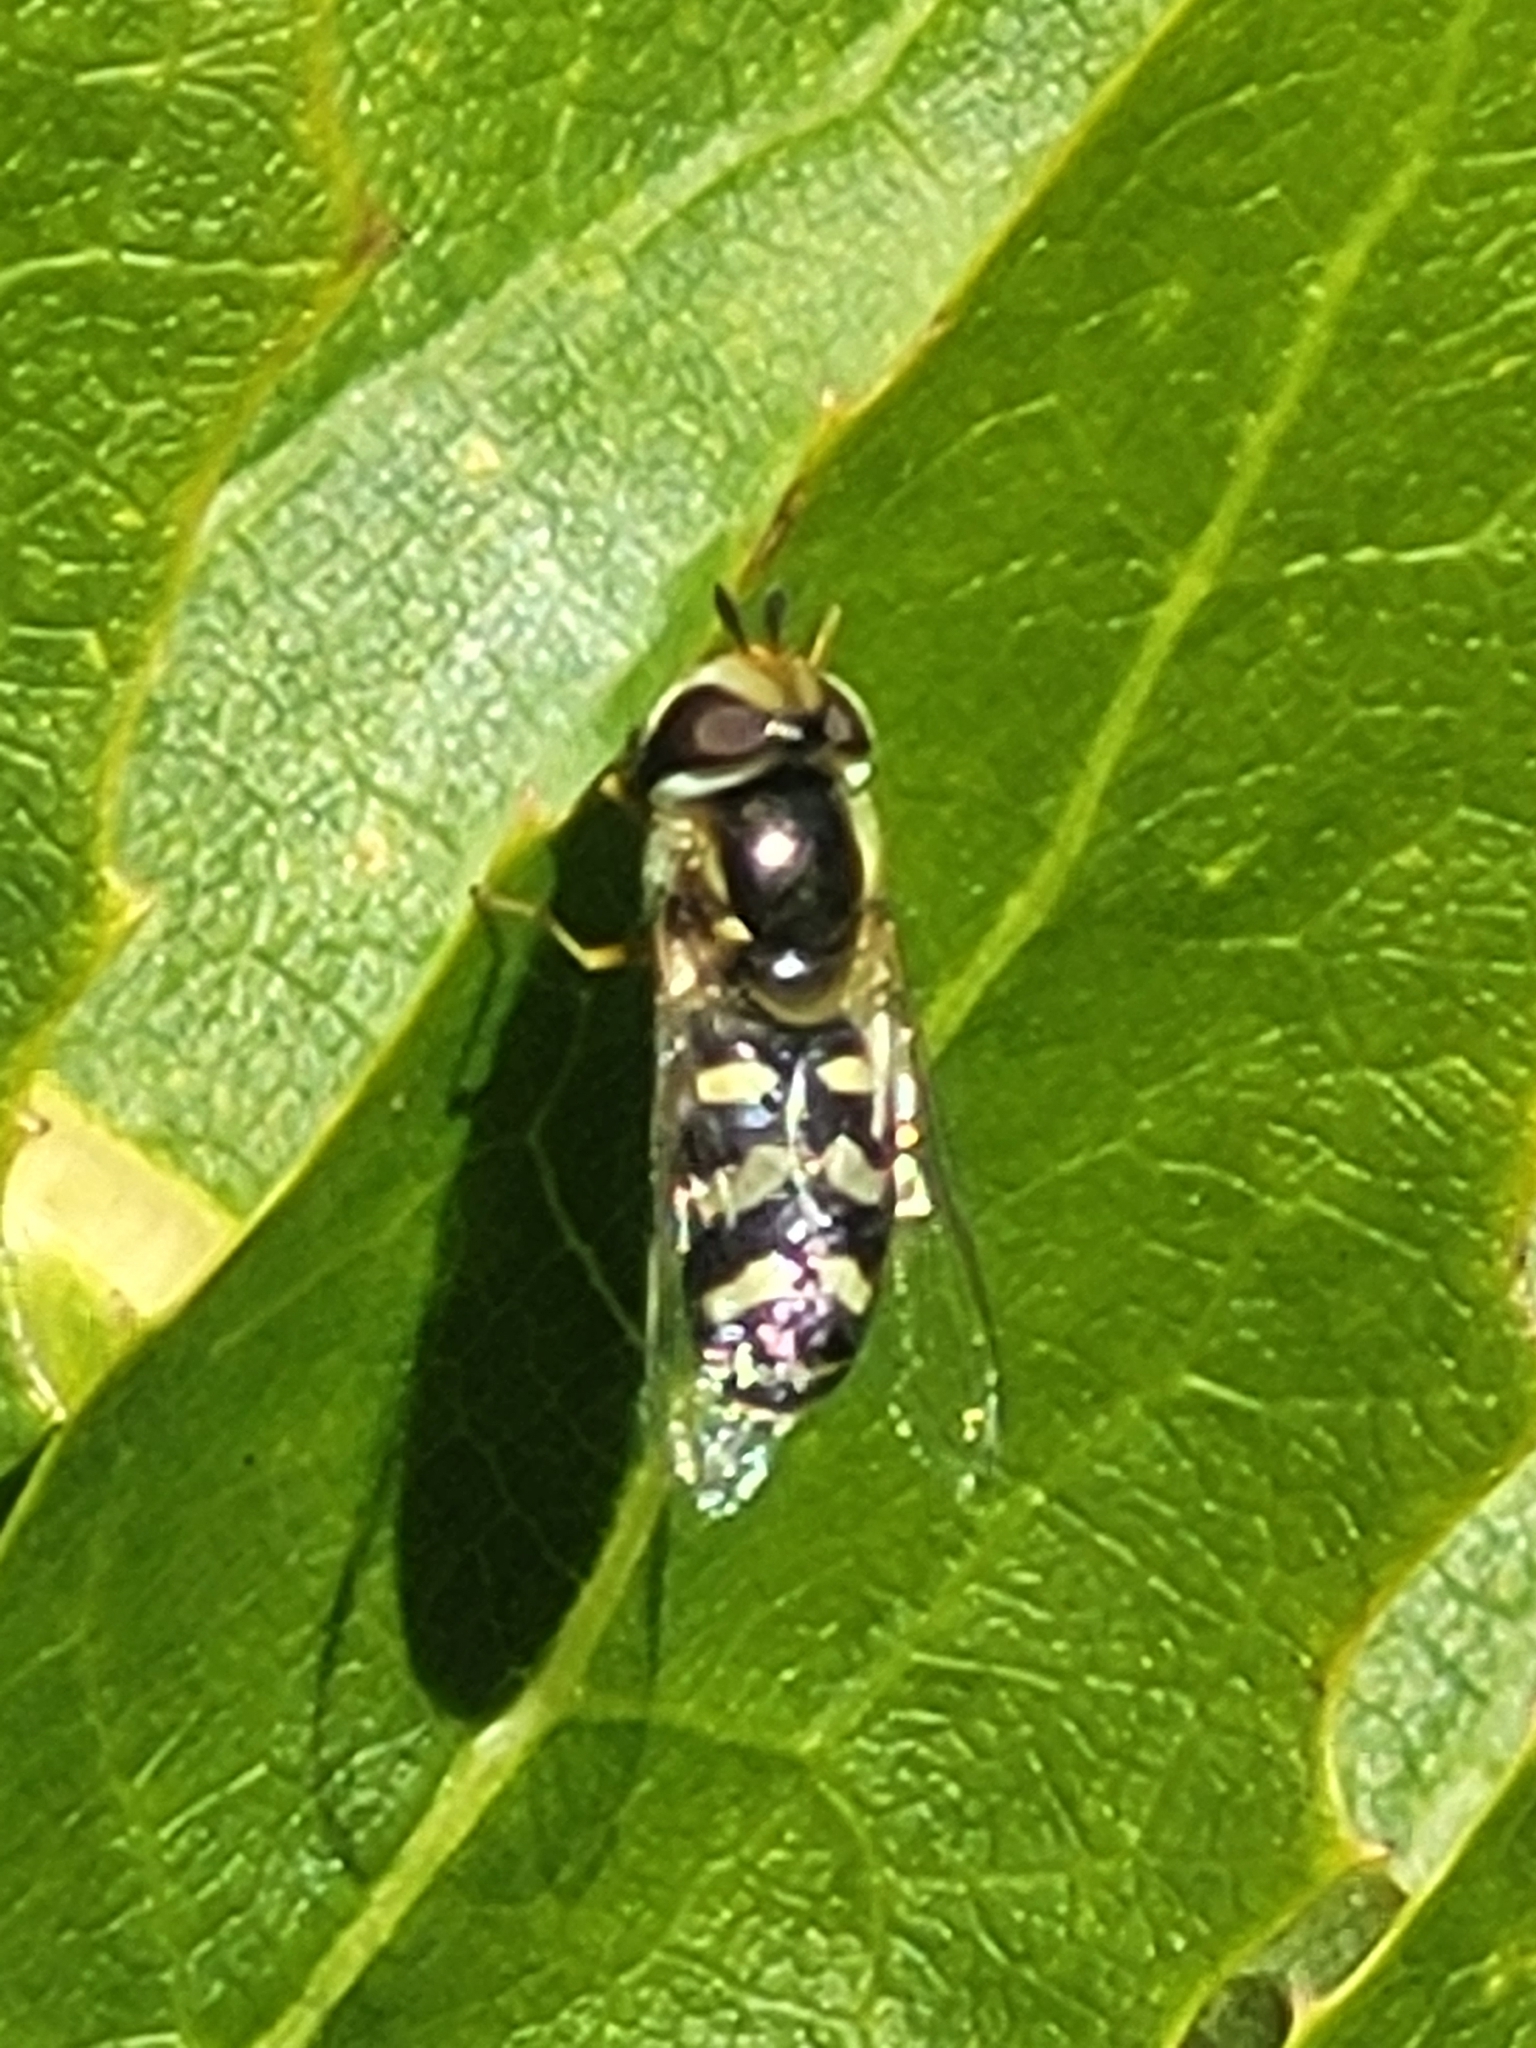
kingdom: Animalia
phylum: Arthropoda
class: Insecta
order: Diptera
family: Syrphidae
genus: Scaeva
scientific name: Scaeva albomaculata
